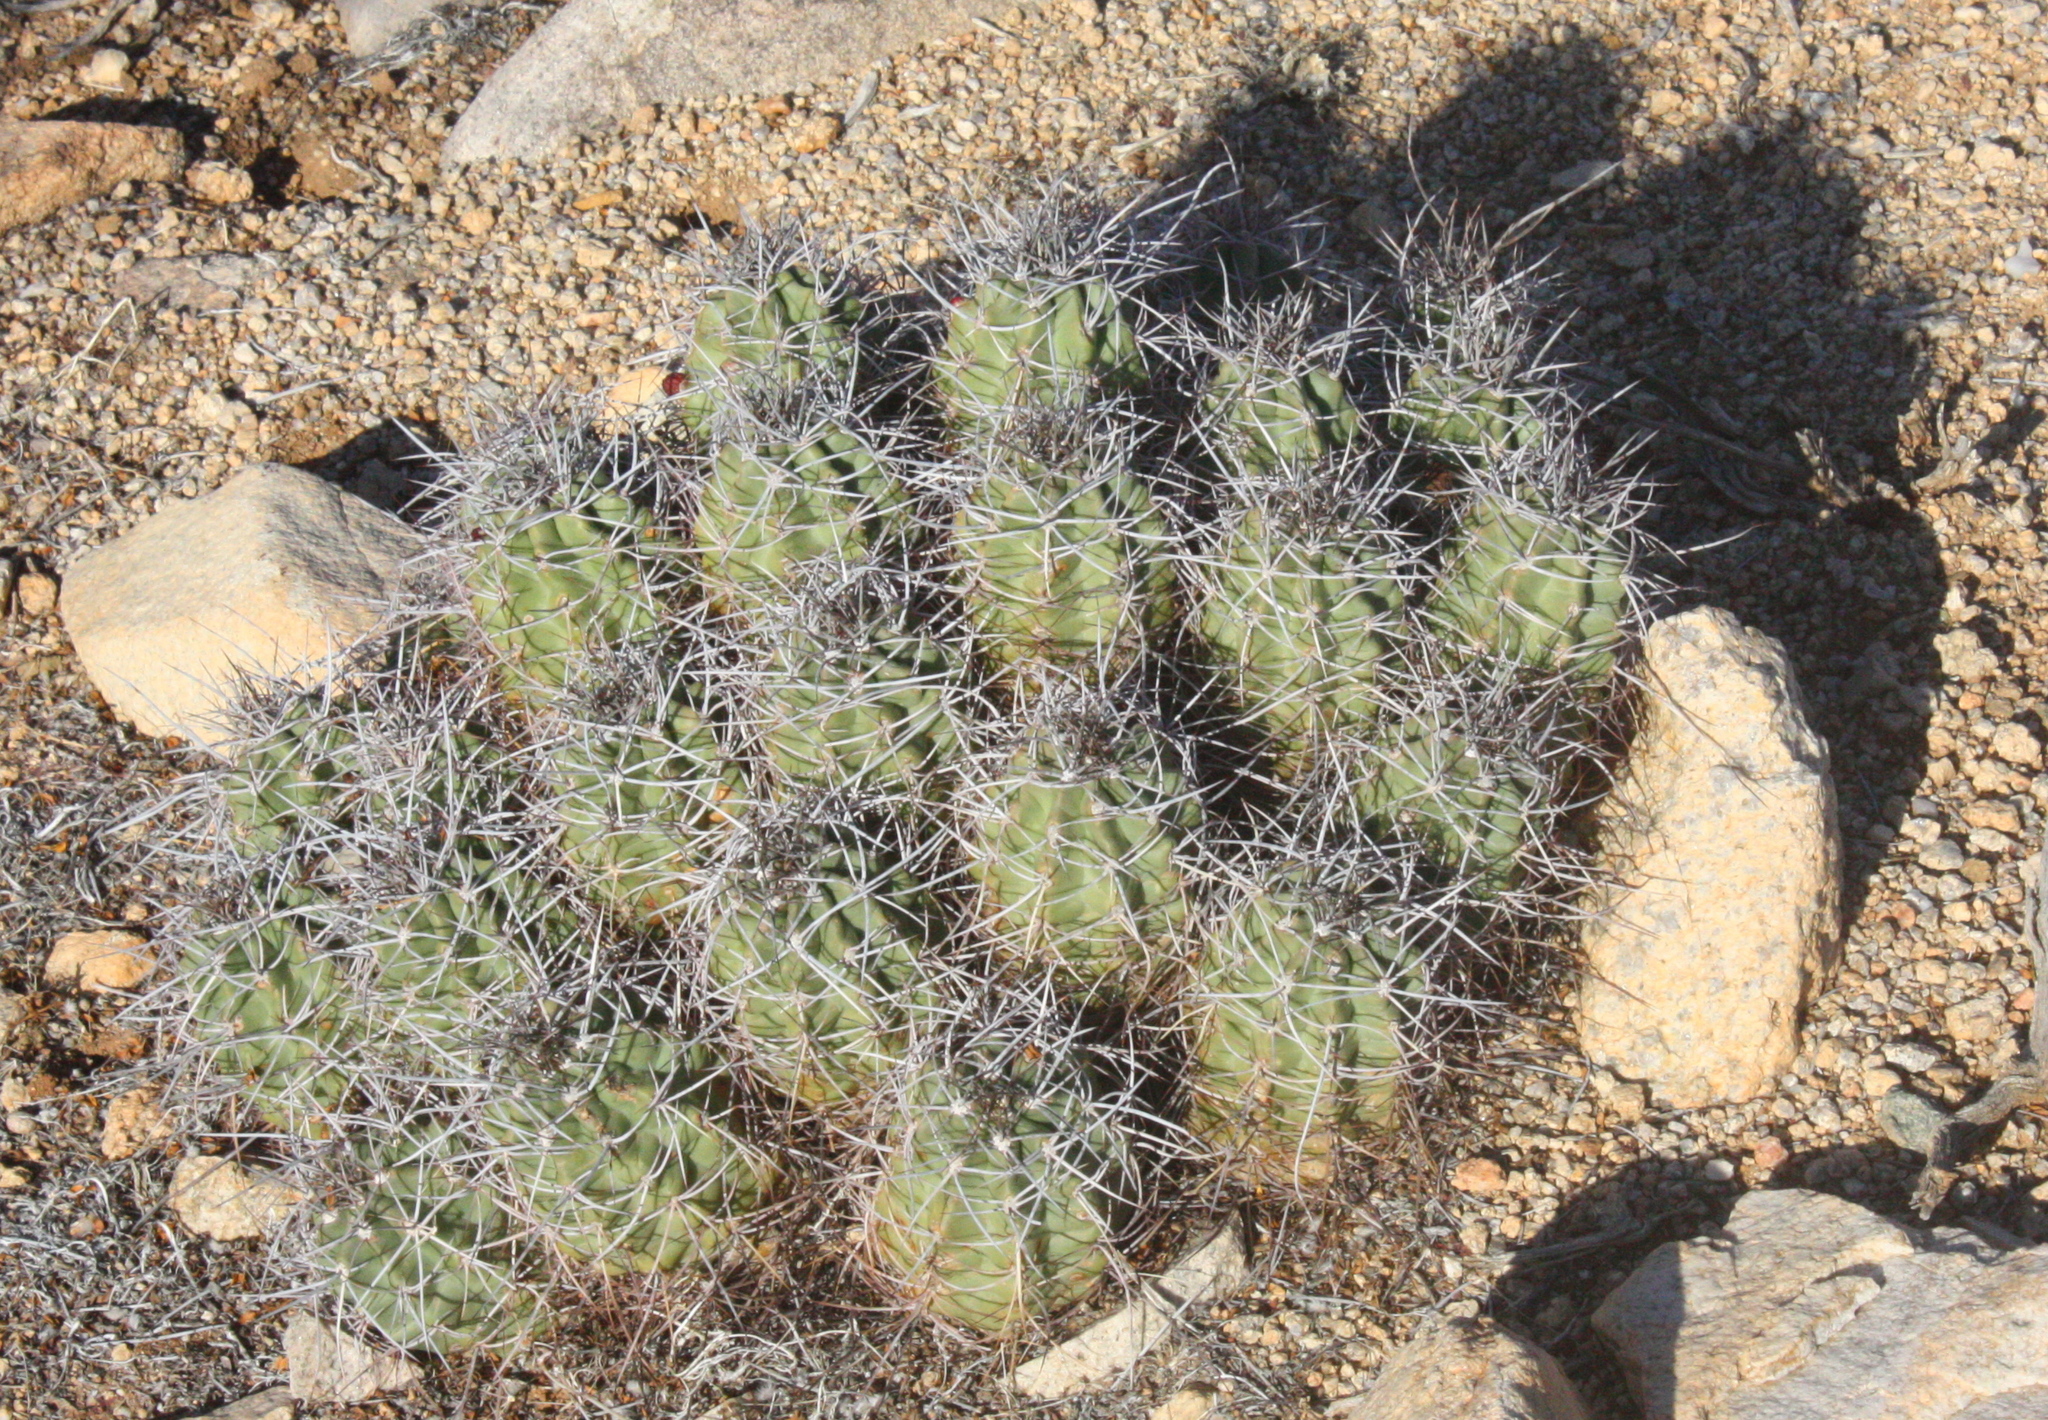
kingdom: Plantae
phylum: Tracheophyta
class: Magnoliopsida
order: Caryophyllales
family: Cactaceae
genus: Echinocereus
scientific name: Echinocereus triglochidiatus
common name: Claretcup hedgehog
